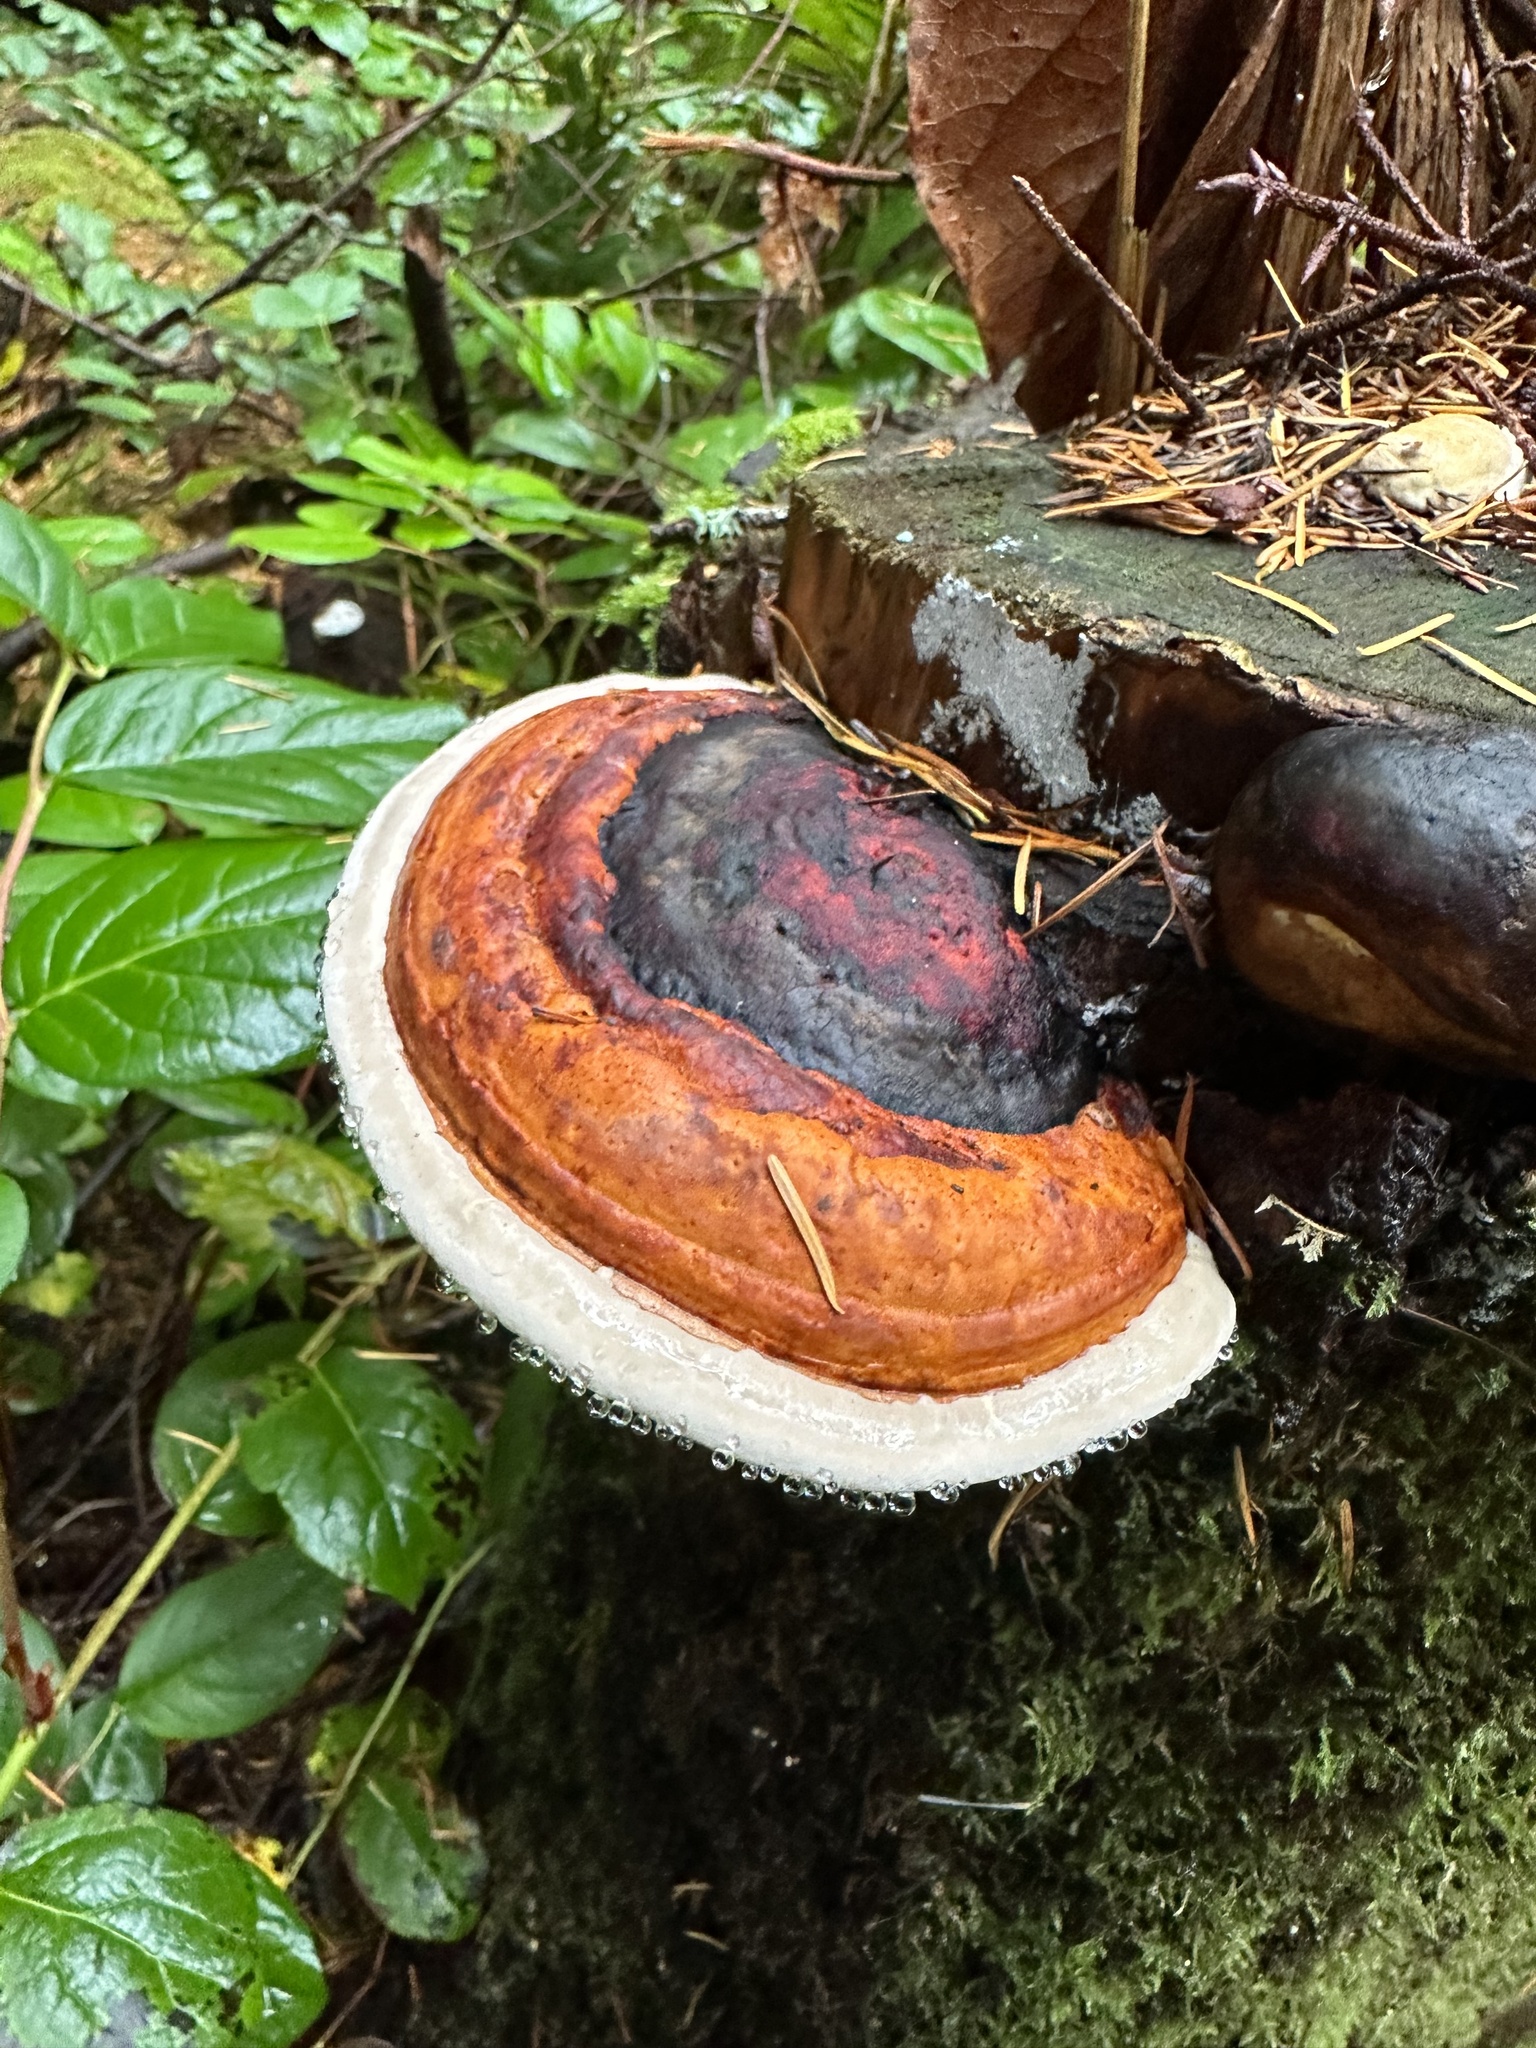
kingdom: Fungi
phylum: Basidiomycota
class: Agaricomycetes
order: Polyporales
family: Fomitopsidaceae
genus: Fomitopsis
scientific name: Fomitopsis mounceae
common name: Northern red belt
